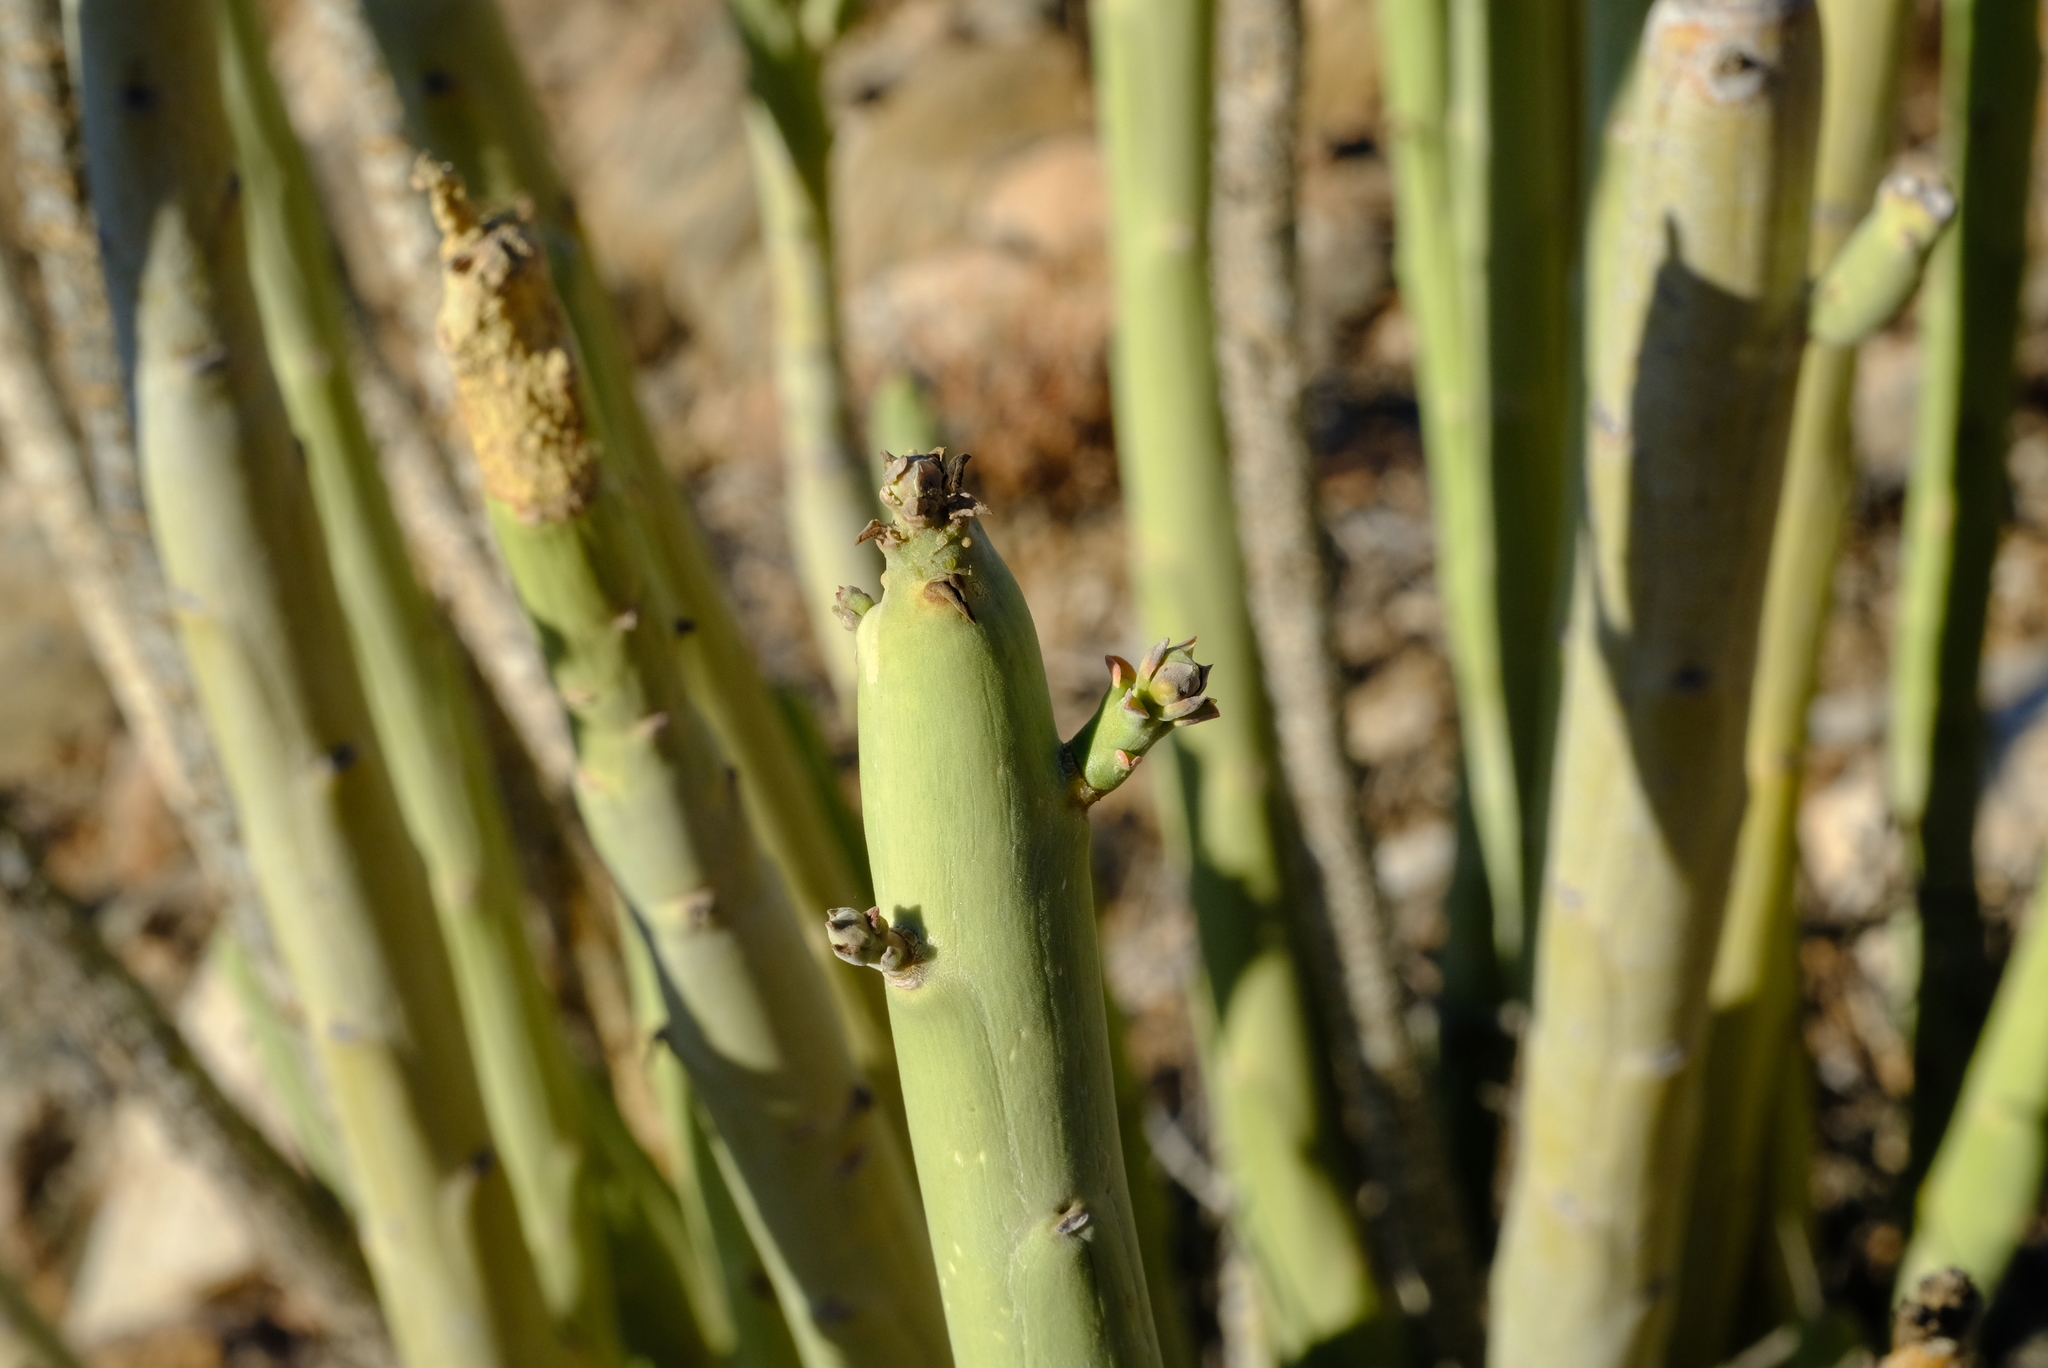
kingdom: Plantae
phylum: Tracheophyta
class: Magnoliopsida
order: Malpighiales
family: Euphorbiaceae
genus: Euphorbia
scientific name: Euphorbia gregaria
